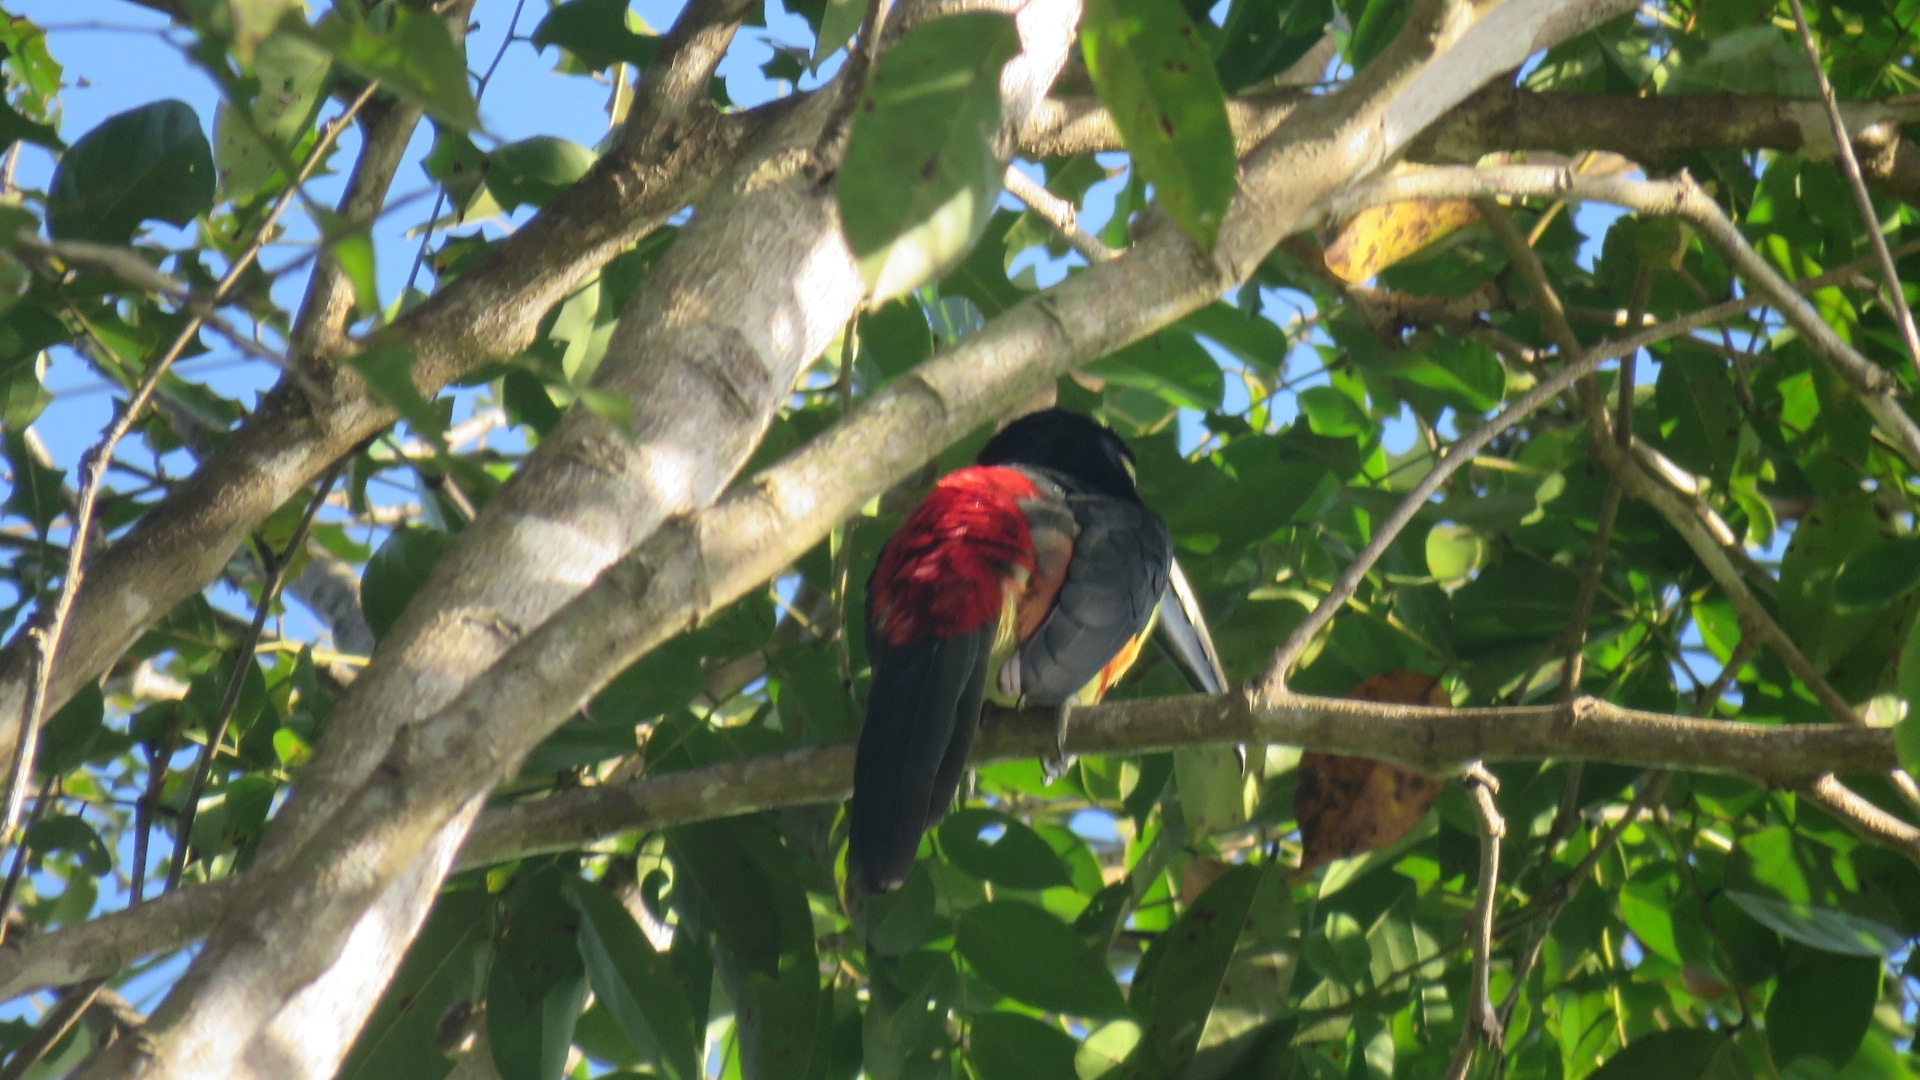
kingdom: Animalia
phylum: Chordata
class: Aves
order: Piciformes
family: Ramphastidae
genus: Pteroglossus
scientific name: Pteroglossus torquatus
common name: Collared aracari
